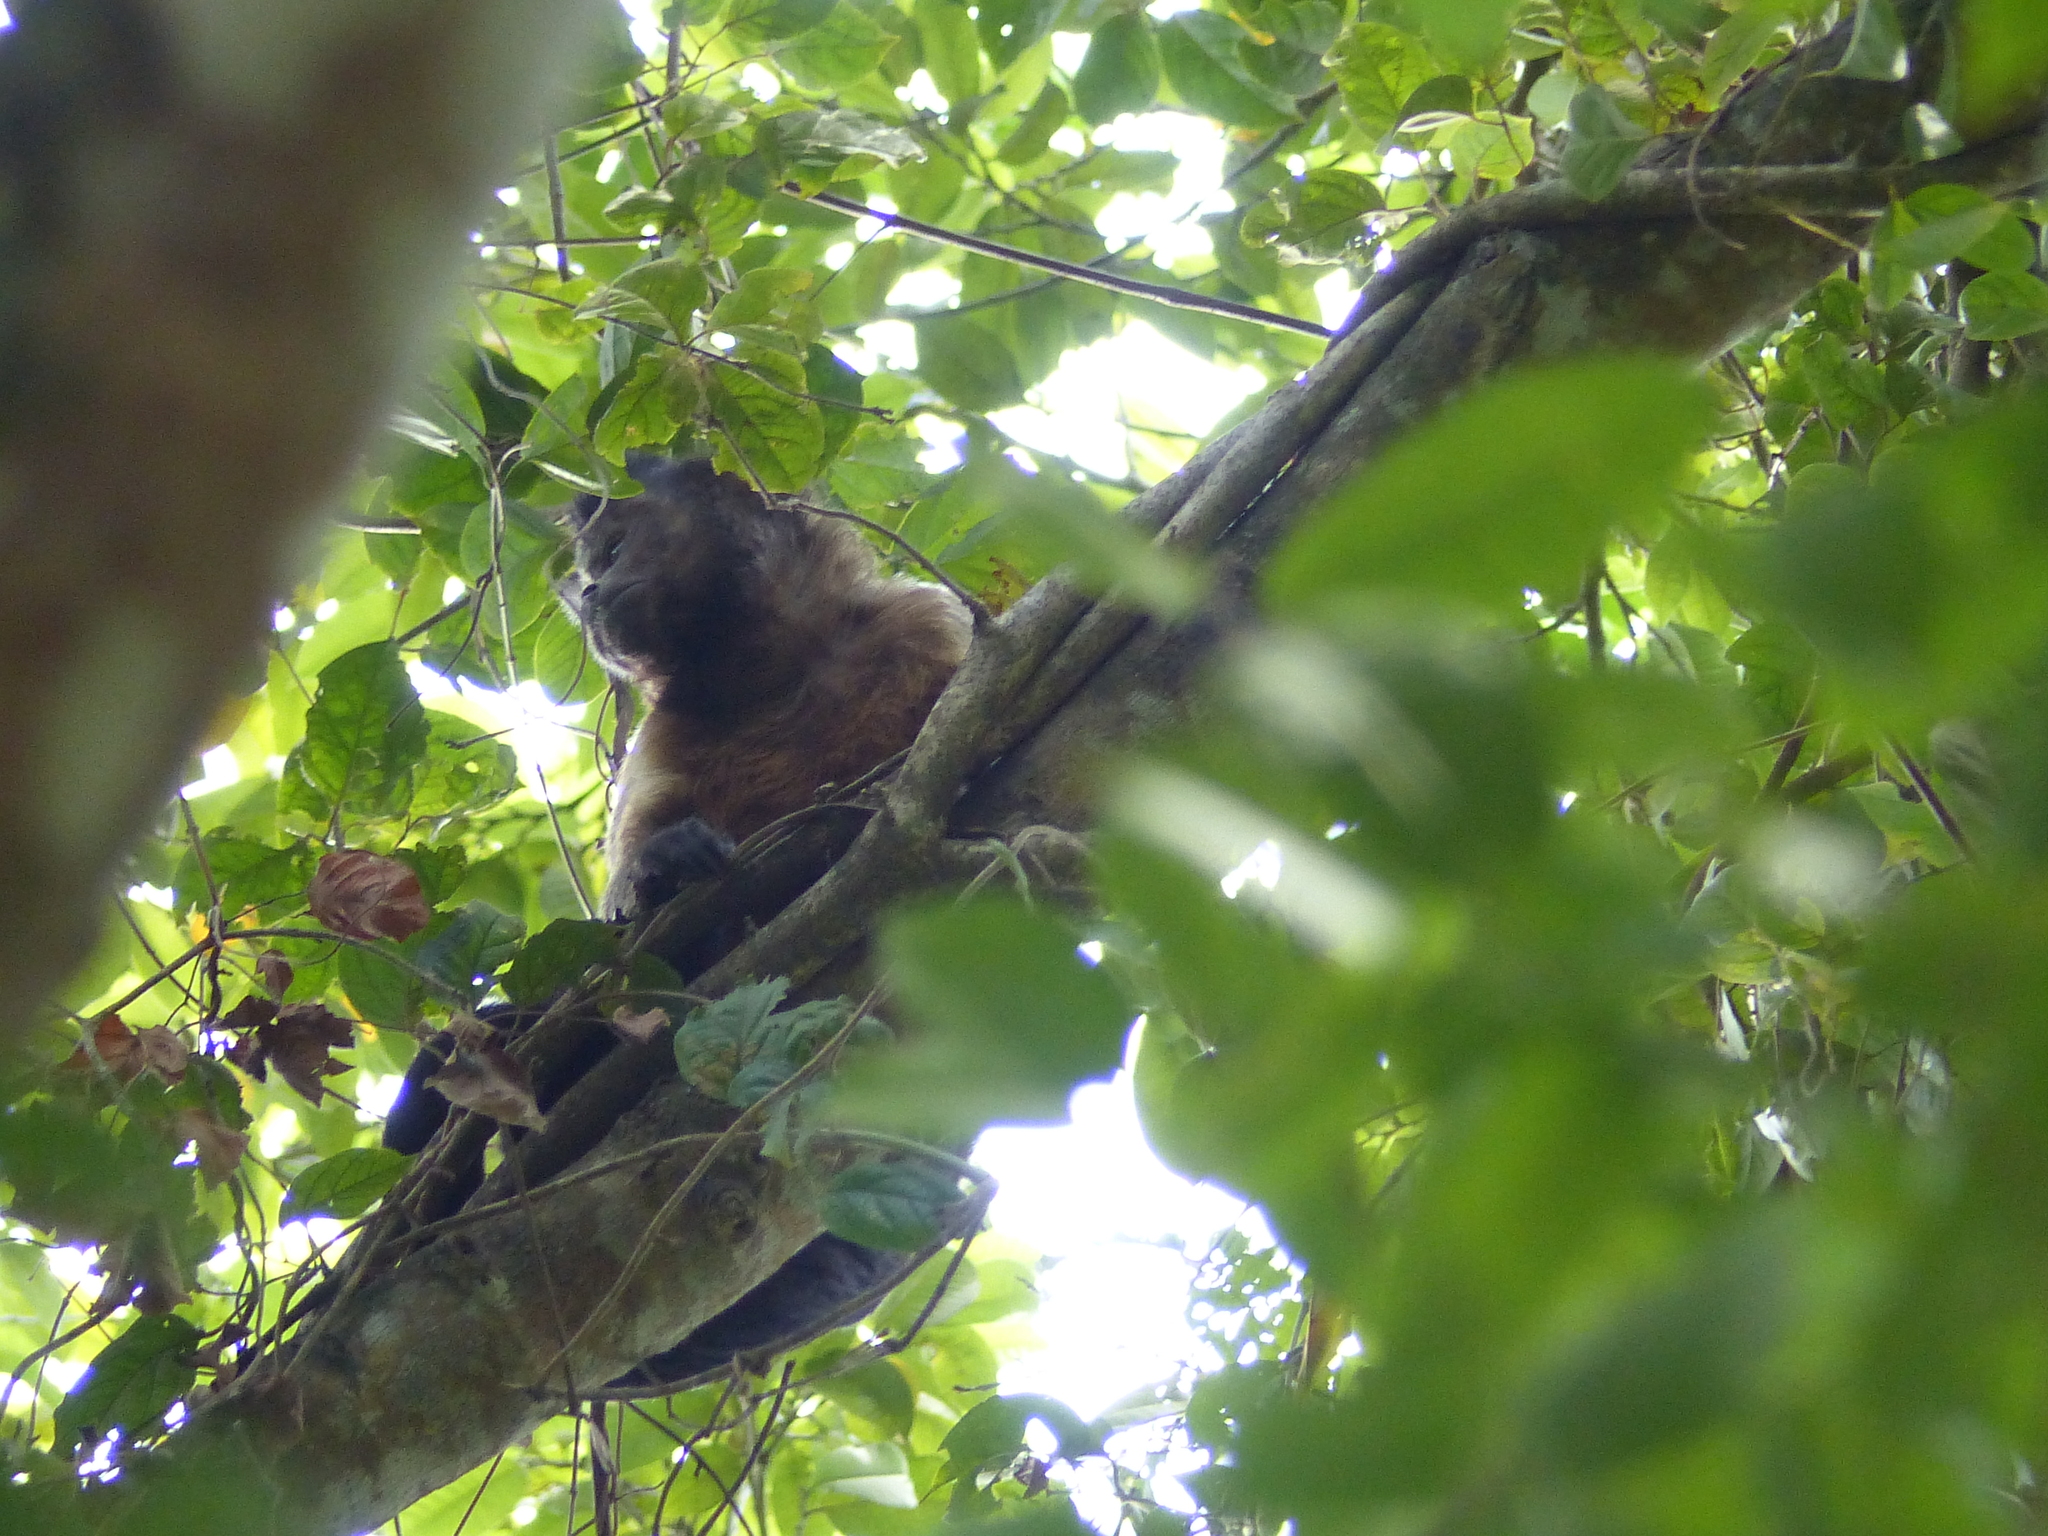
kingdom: Animalia
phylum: Chordata
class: Mammalia
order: Primates
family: Cebidae
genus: Sapajus
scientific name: Sapajus apella
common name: Tufted capuchin
